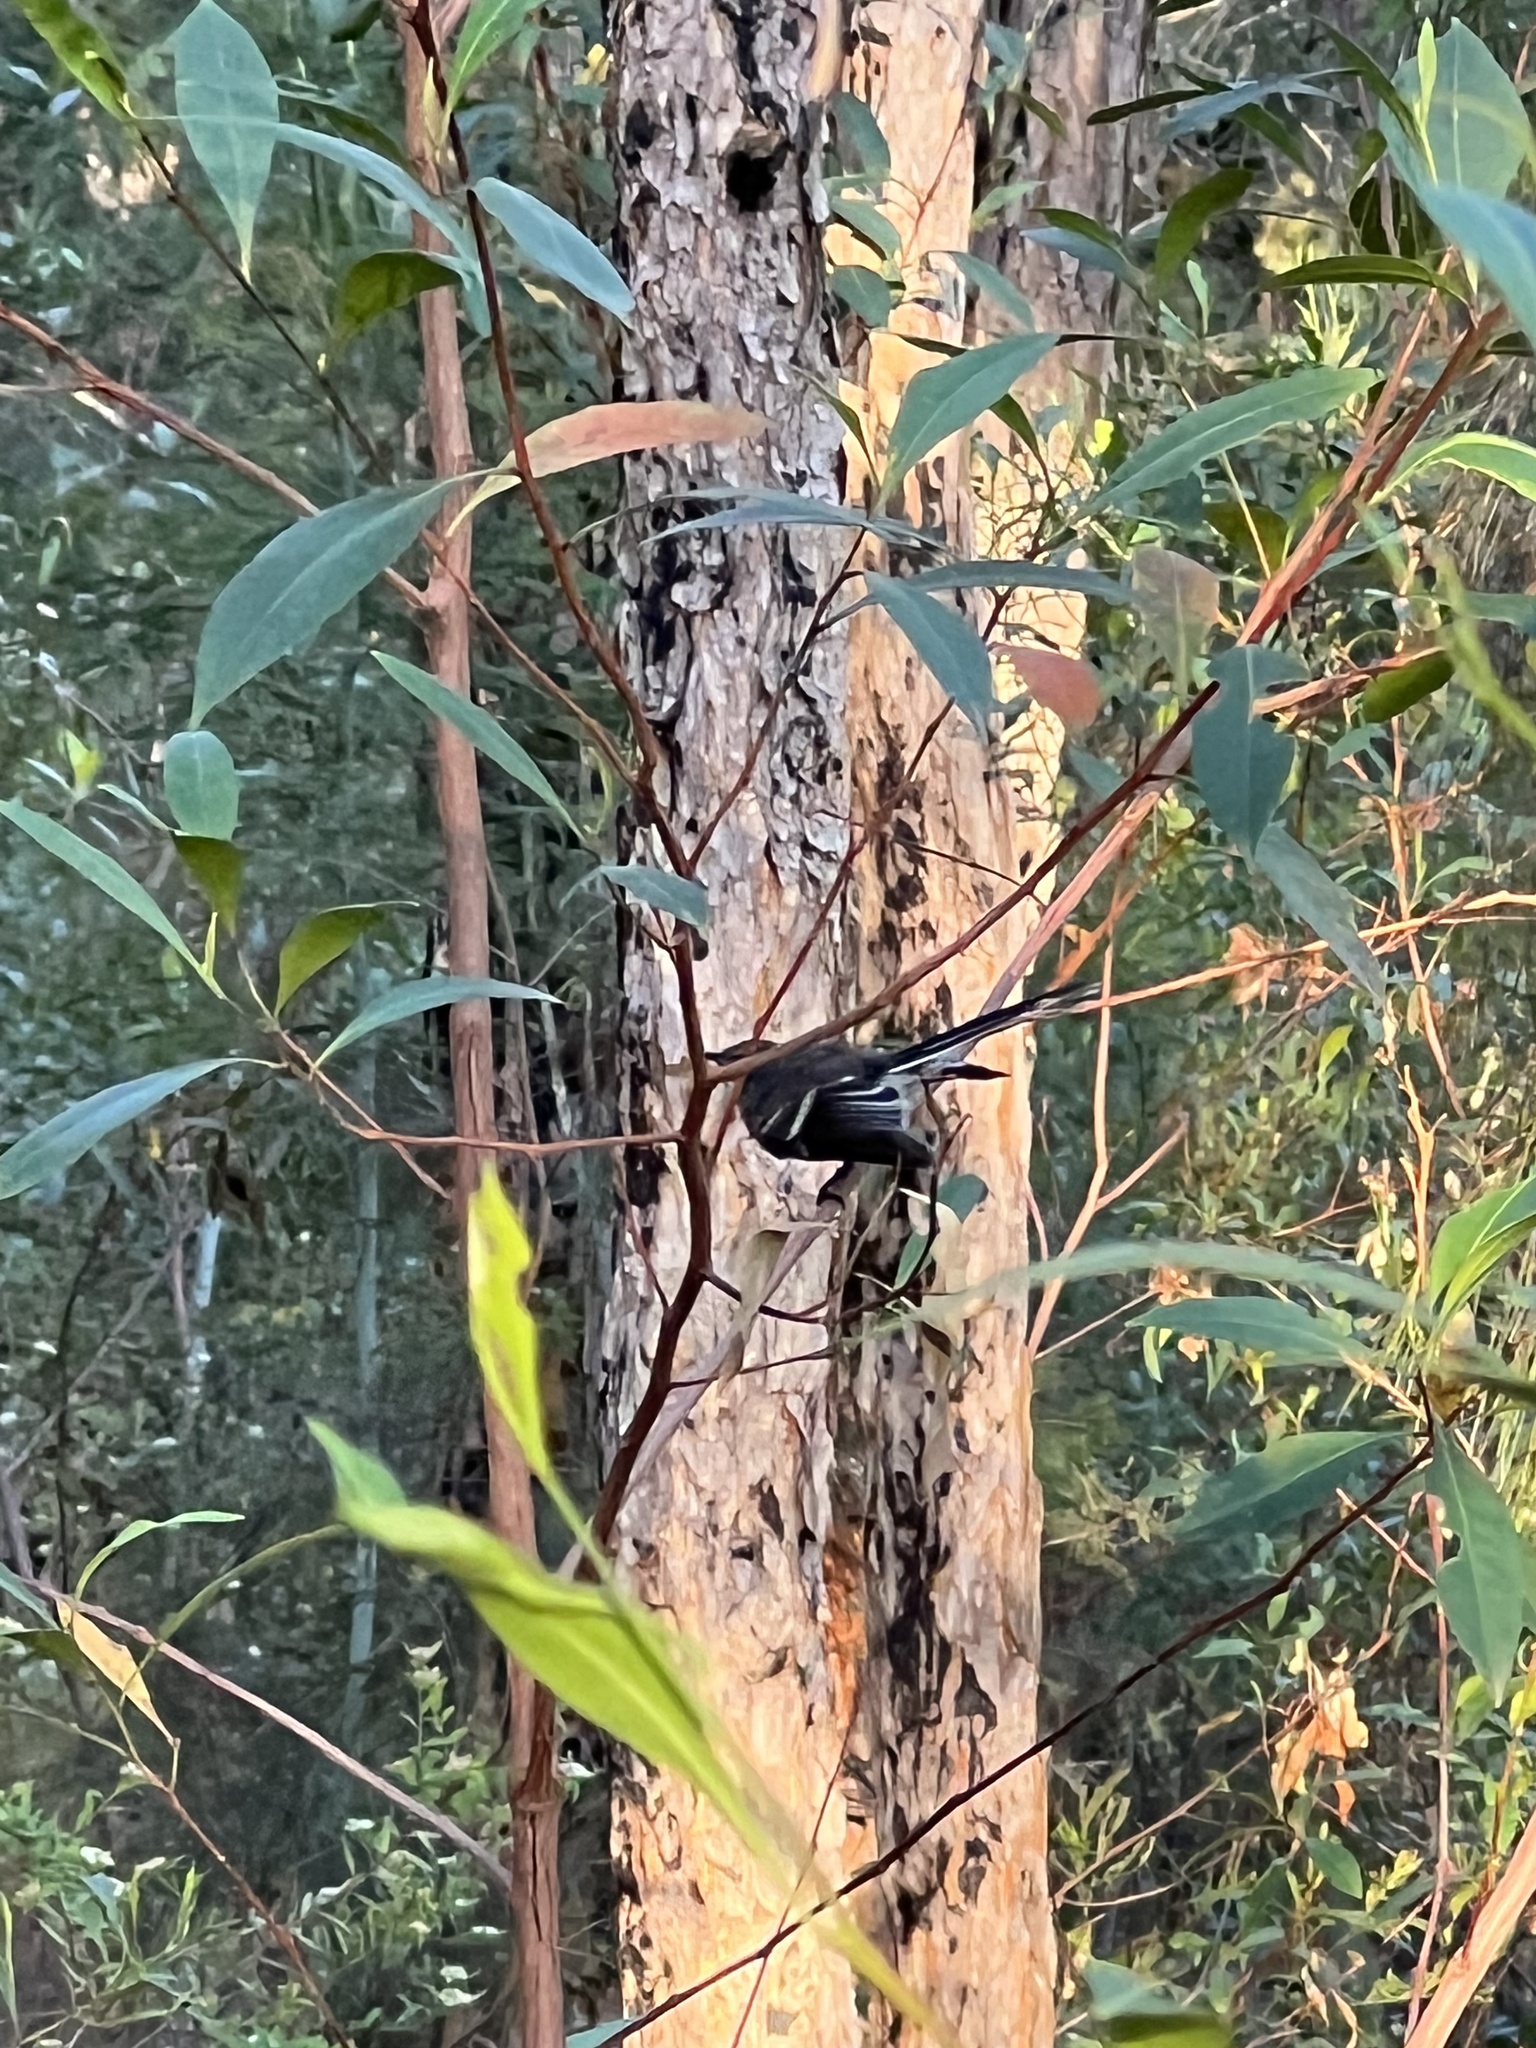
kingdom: Animalia
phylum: Chordata
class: Aves
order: Passeriformes
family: Rhipiduridae
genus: Rhipidura
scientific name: Rhipidura albiscapa
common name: Grey fantail
